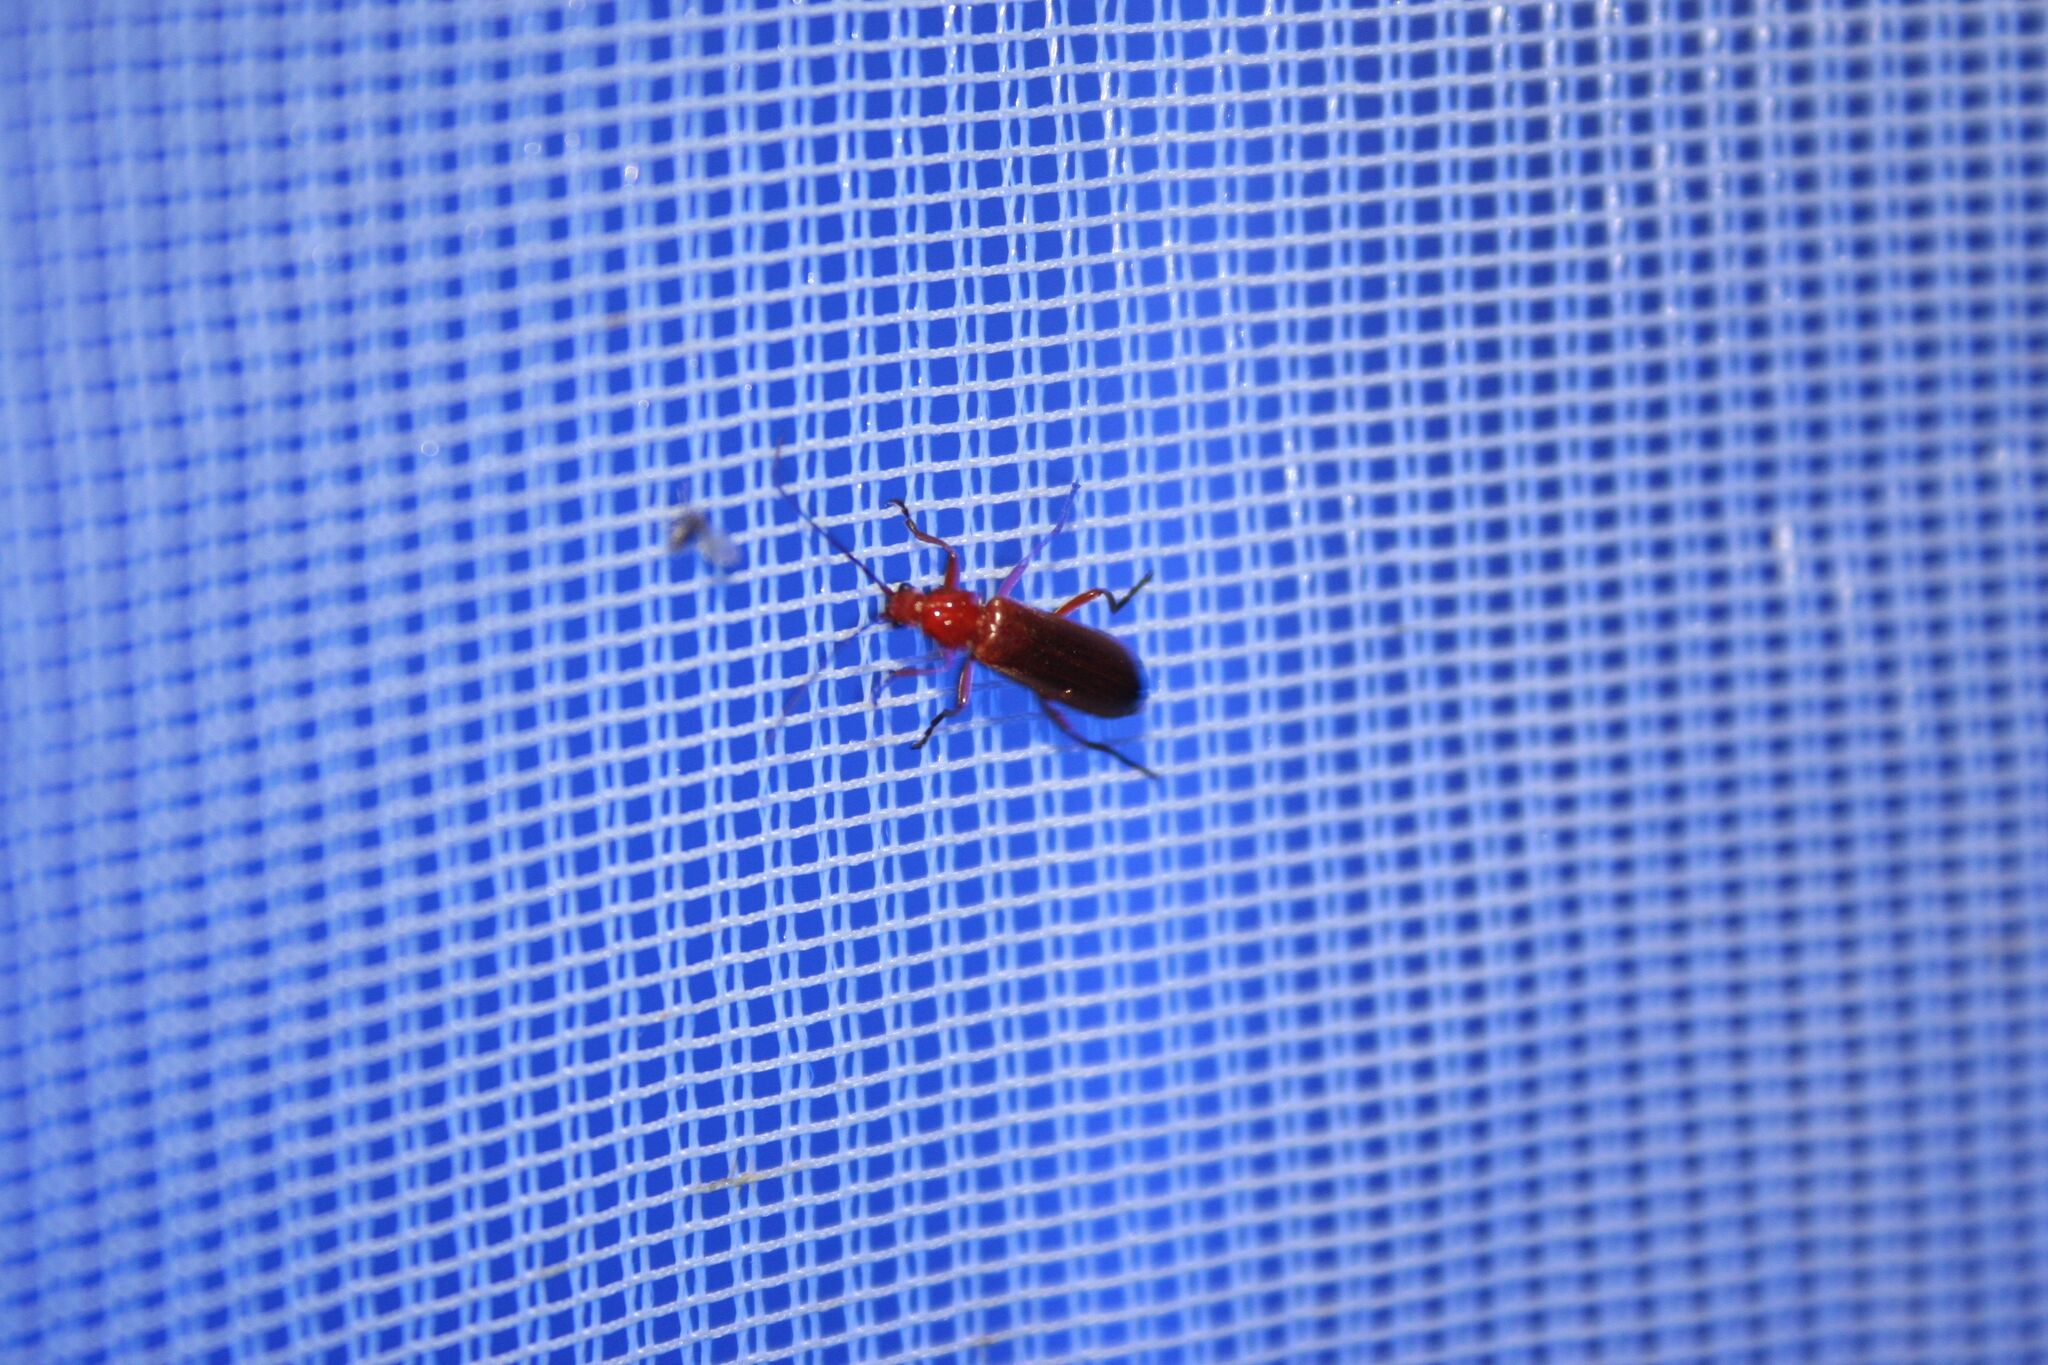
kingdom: Animalia
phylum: Arthropoda
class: Insecta
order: Coleoptera
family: Cantharidae
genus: Rhagonycha
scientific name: Rhagonycha fulva
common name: Common red soldier beetle
